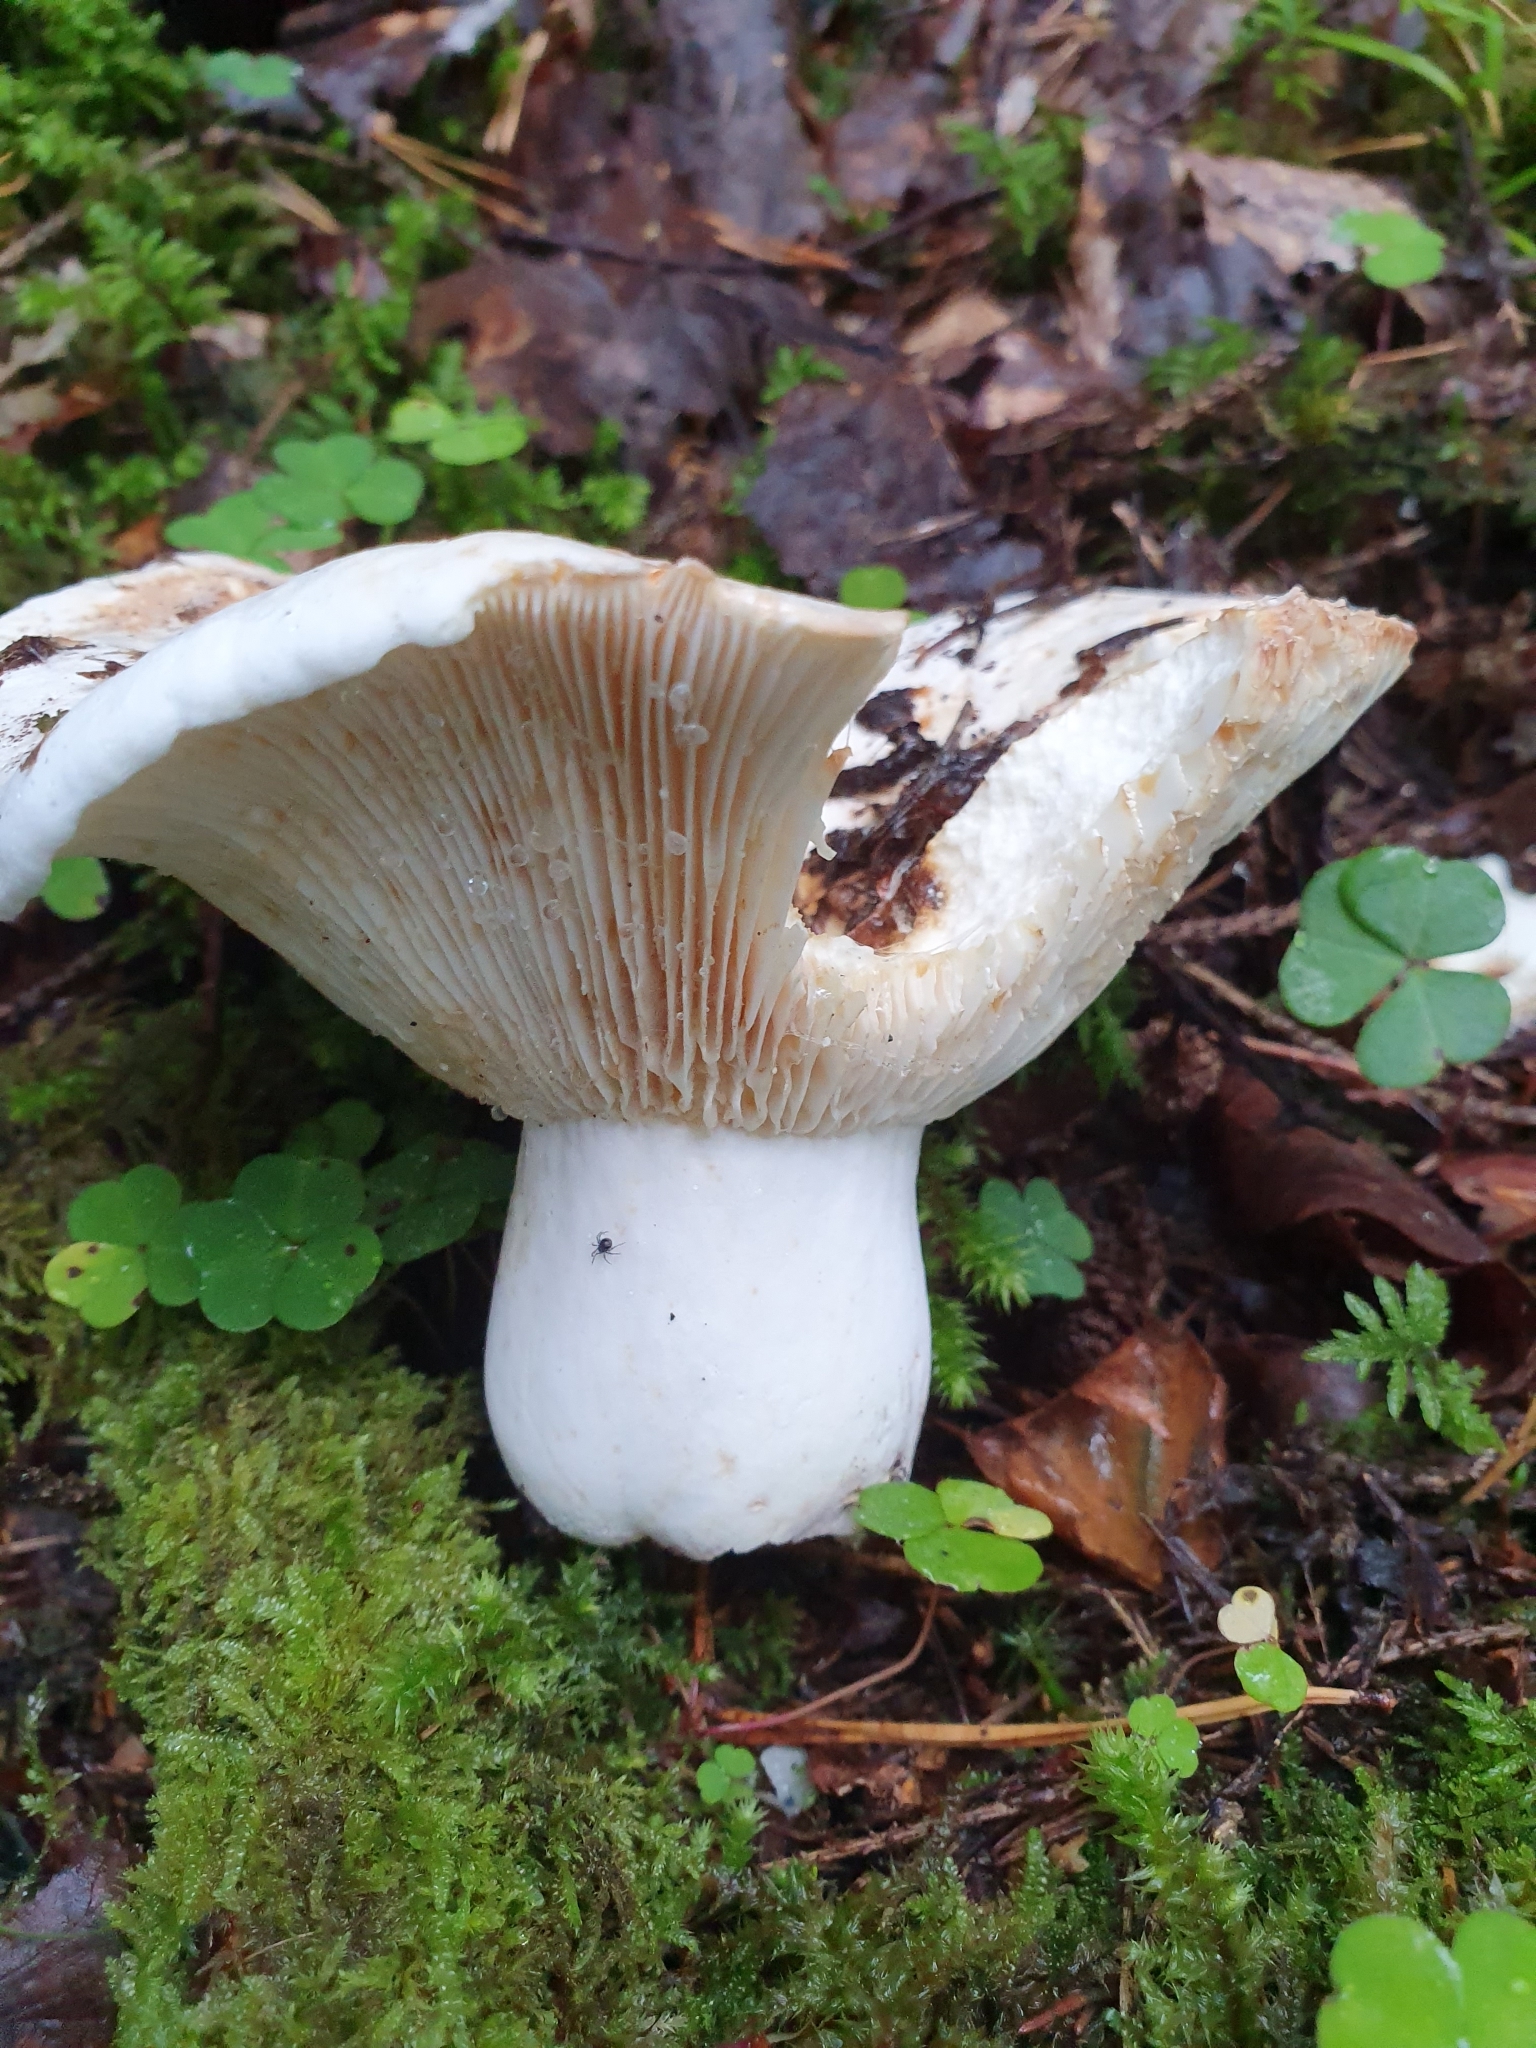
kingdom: Fungi
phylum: Basidiomycota
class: Agaricomycetes
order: Russulales
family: Russulaceae
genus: Lactifluus
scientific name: Lactifluus piperatus
